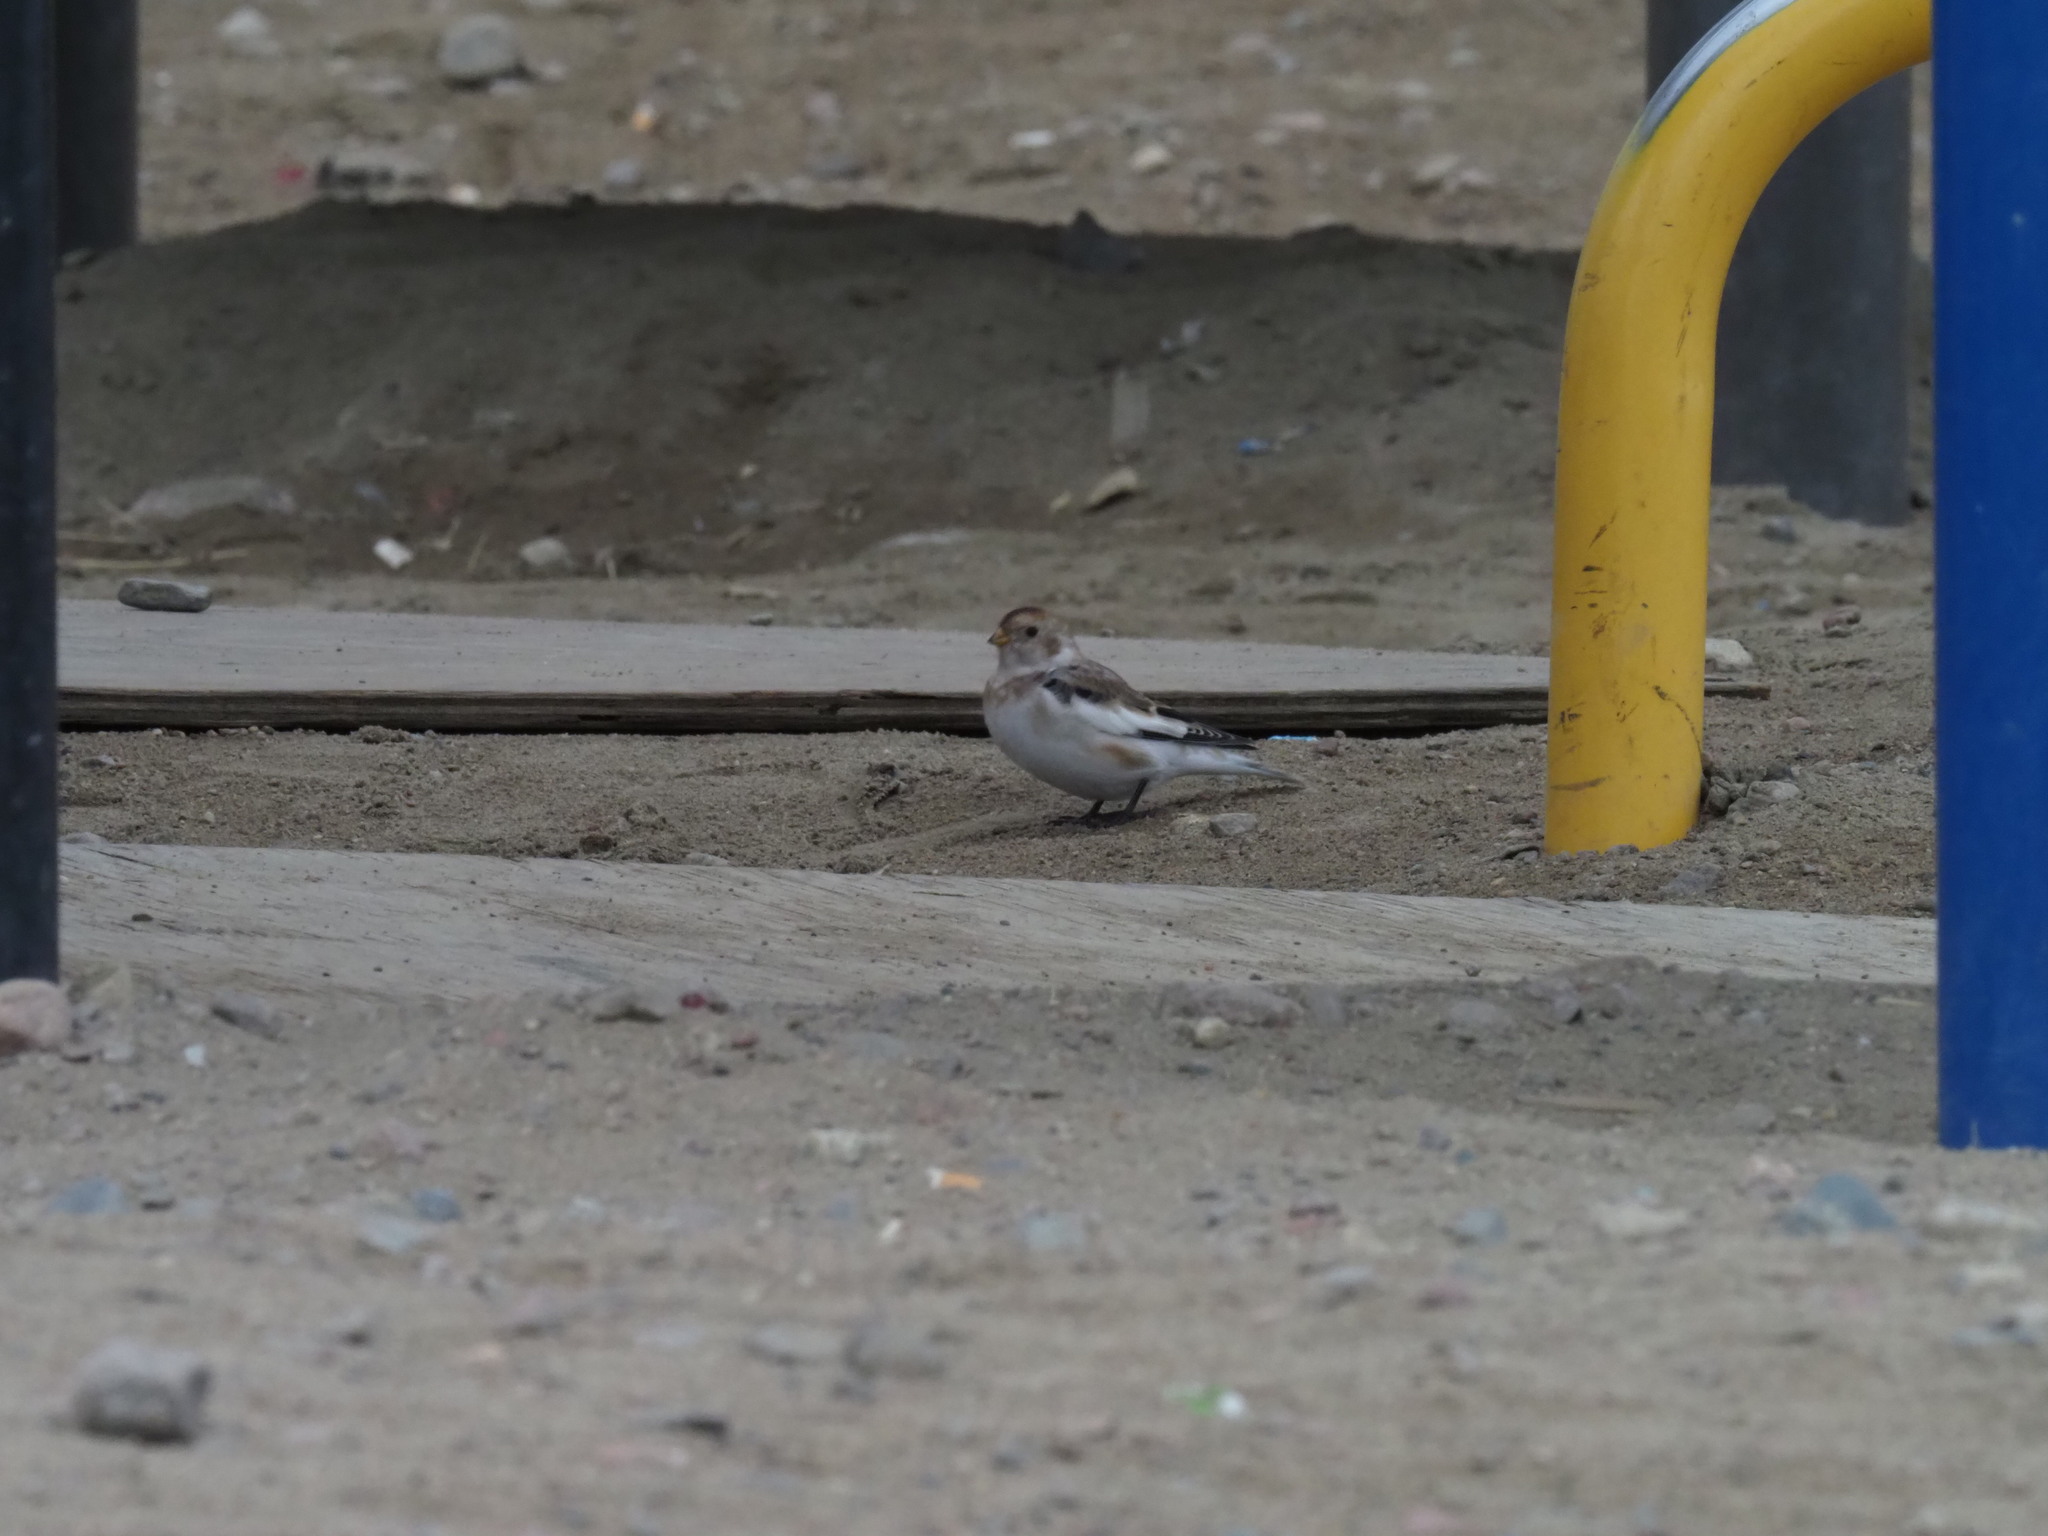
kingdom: Animalia
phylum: Chordata
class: Aves
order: Passeriformes
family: Calcariidae
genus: Plectrophenax
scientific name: Plectrophenax nivalis
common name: Snow bunting
